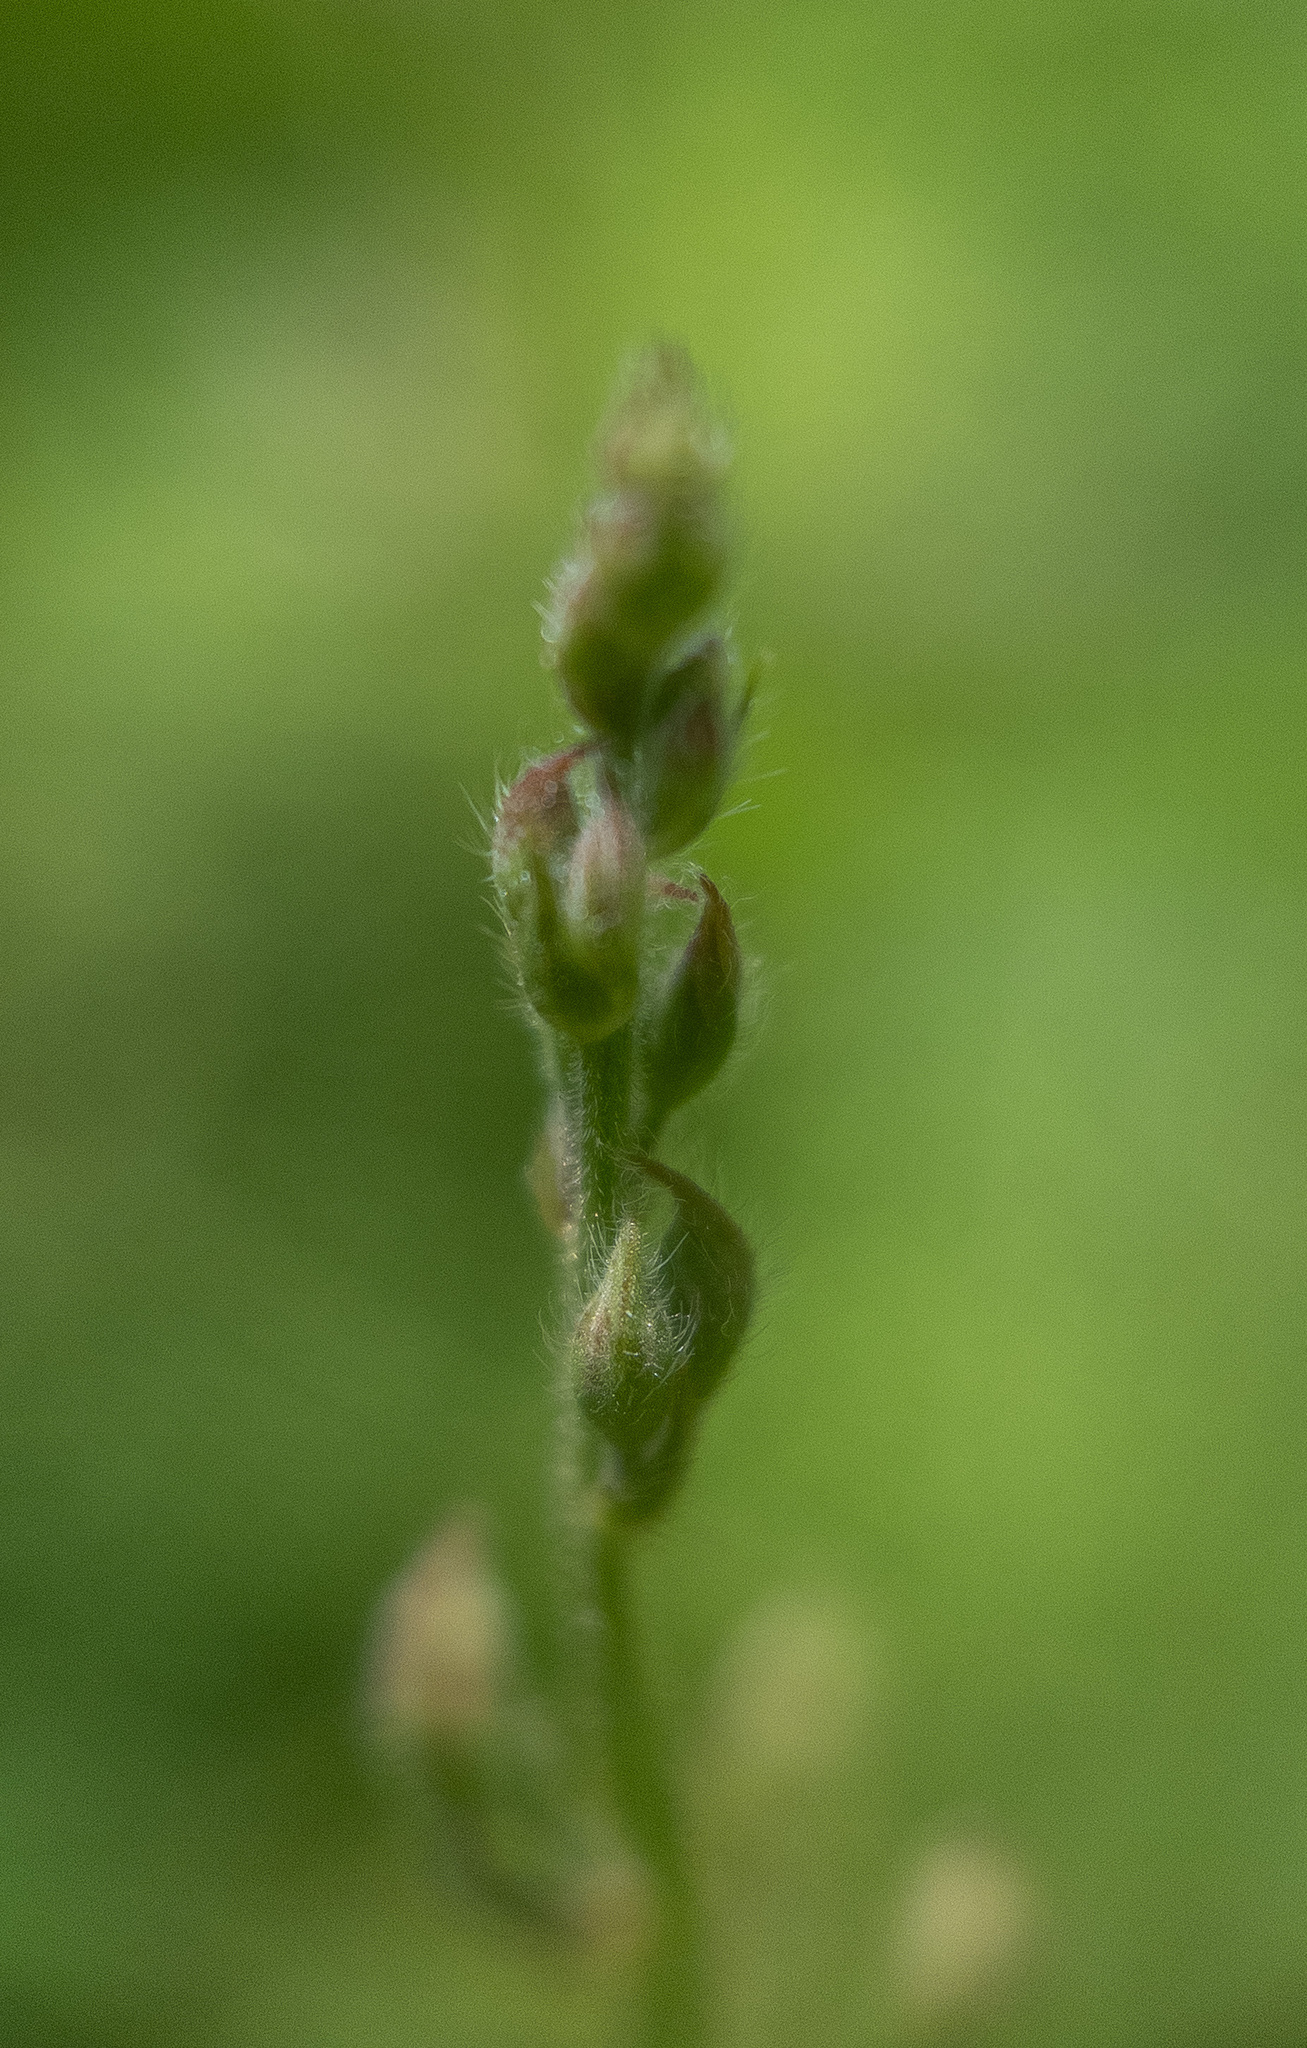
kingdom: Plantae
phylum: Tracheophyta
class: Magnoliopsida
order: Fabales
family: Fabaceae
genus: Desmodium
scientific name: Desmodium paniculatum
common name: Panicled tick-clover
